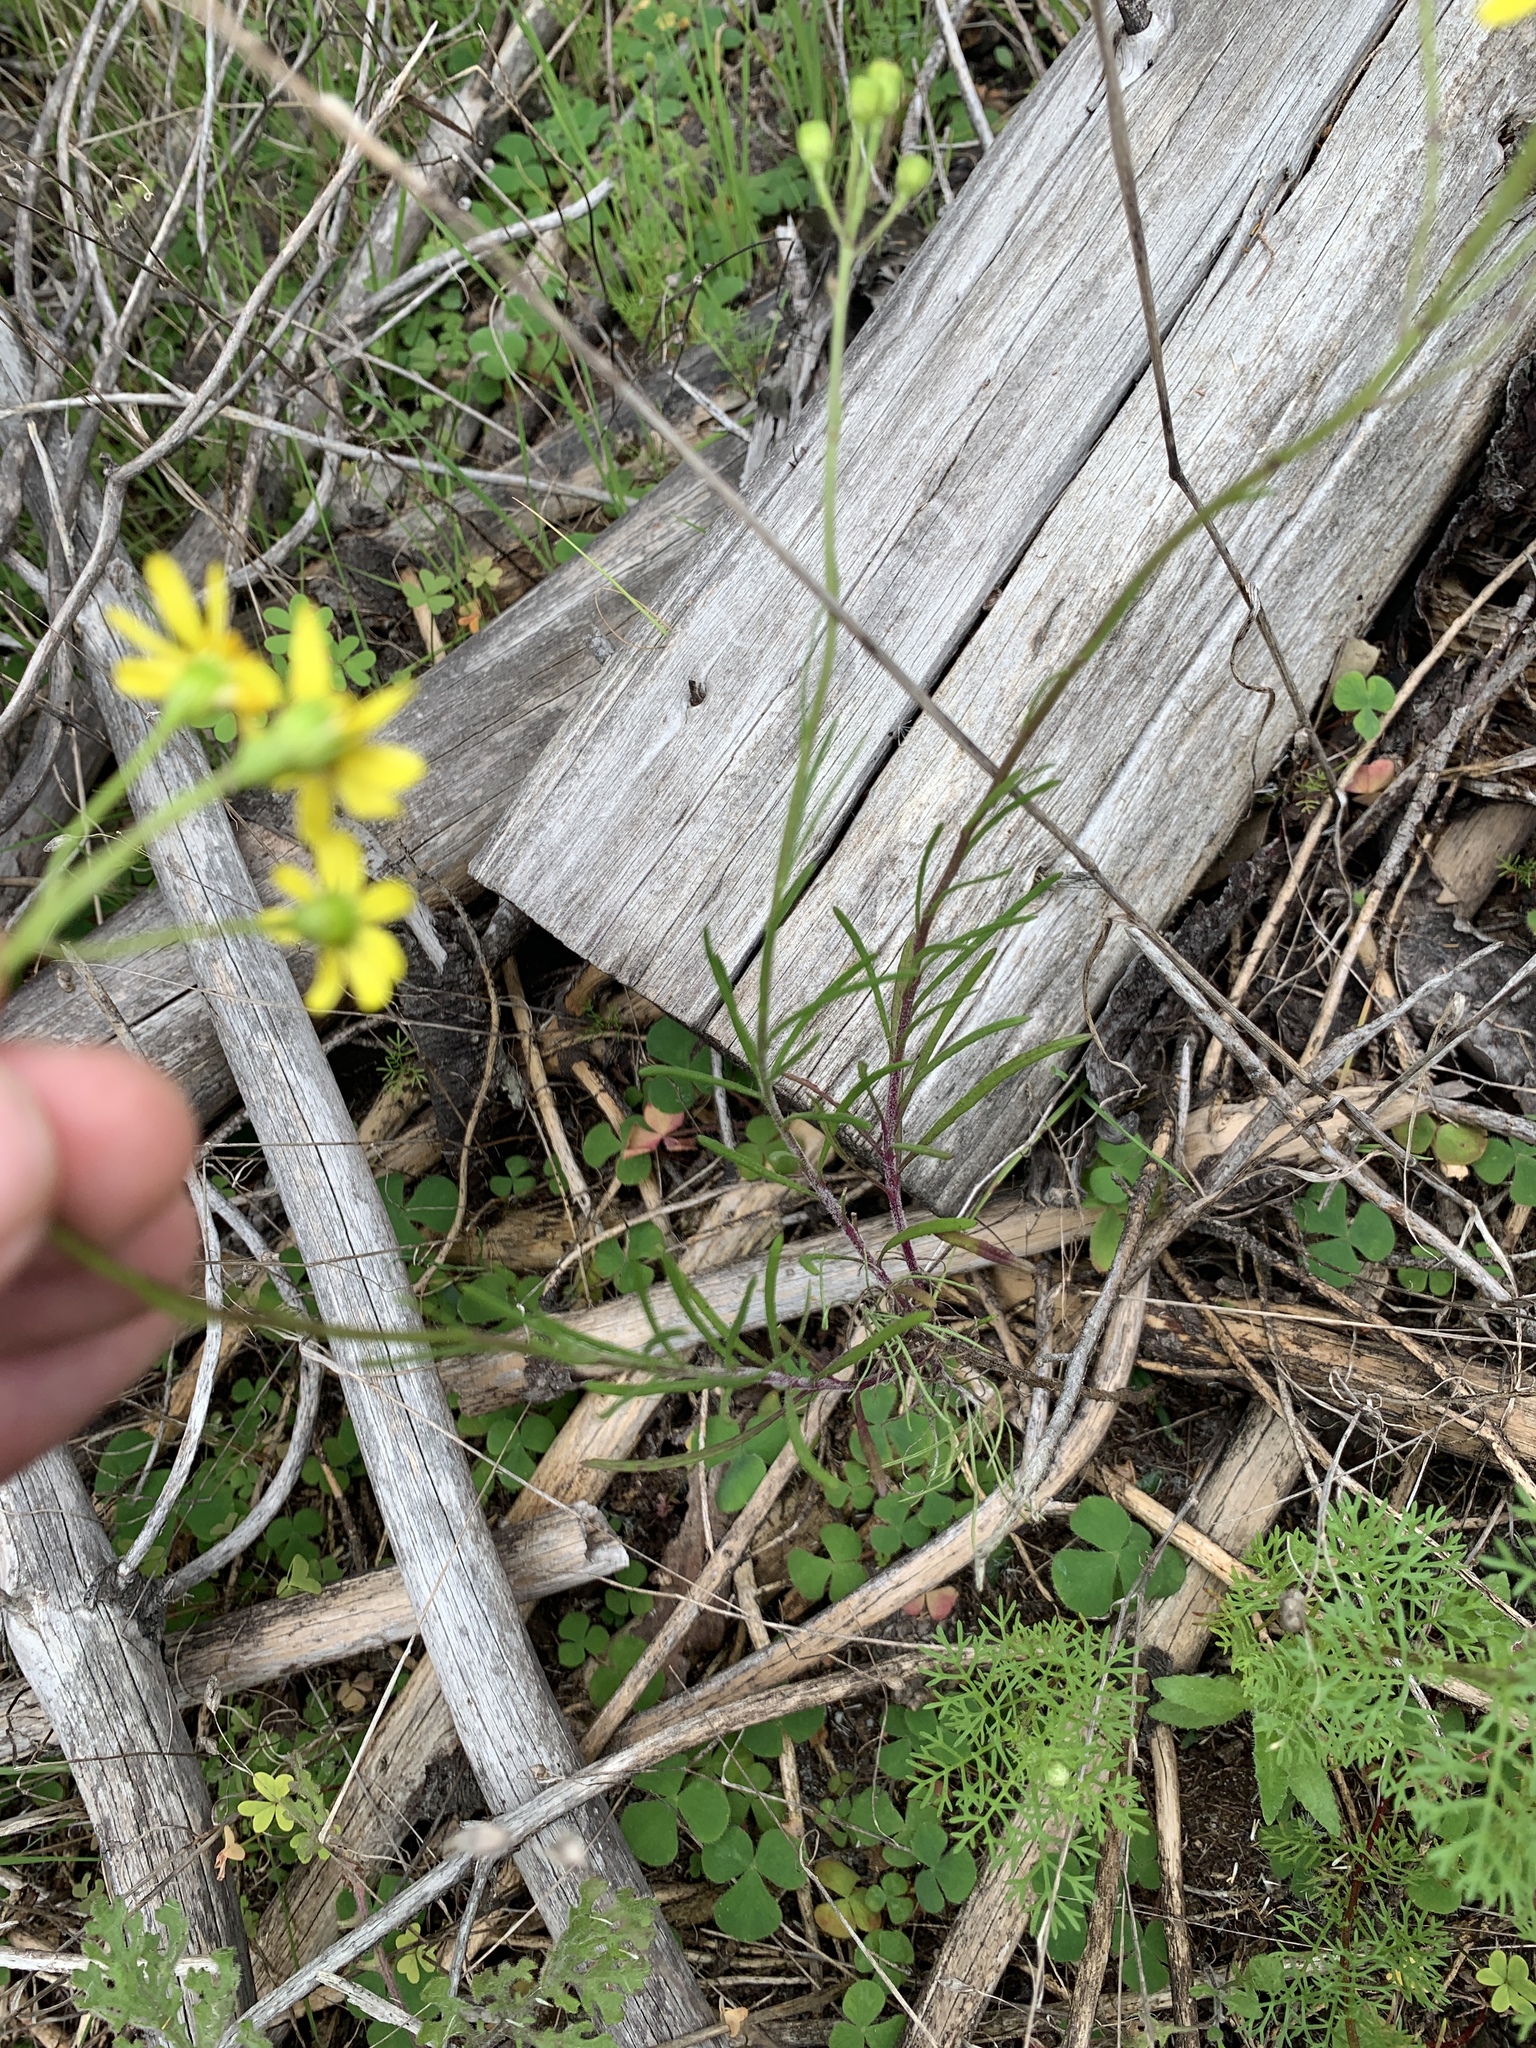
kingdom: Plantae
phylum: Tracheophyta
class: Magnoliopsida
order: Asterales
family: Asteraceae
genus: Senecio
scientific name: Senecio burchellii
